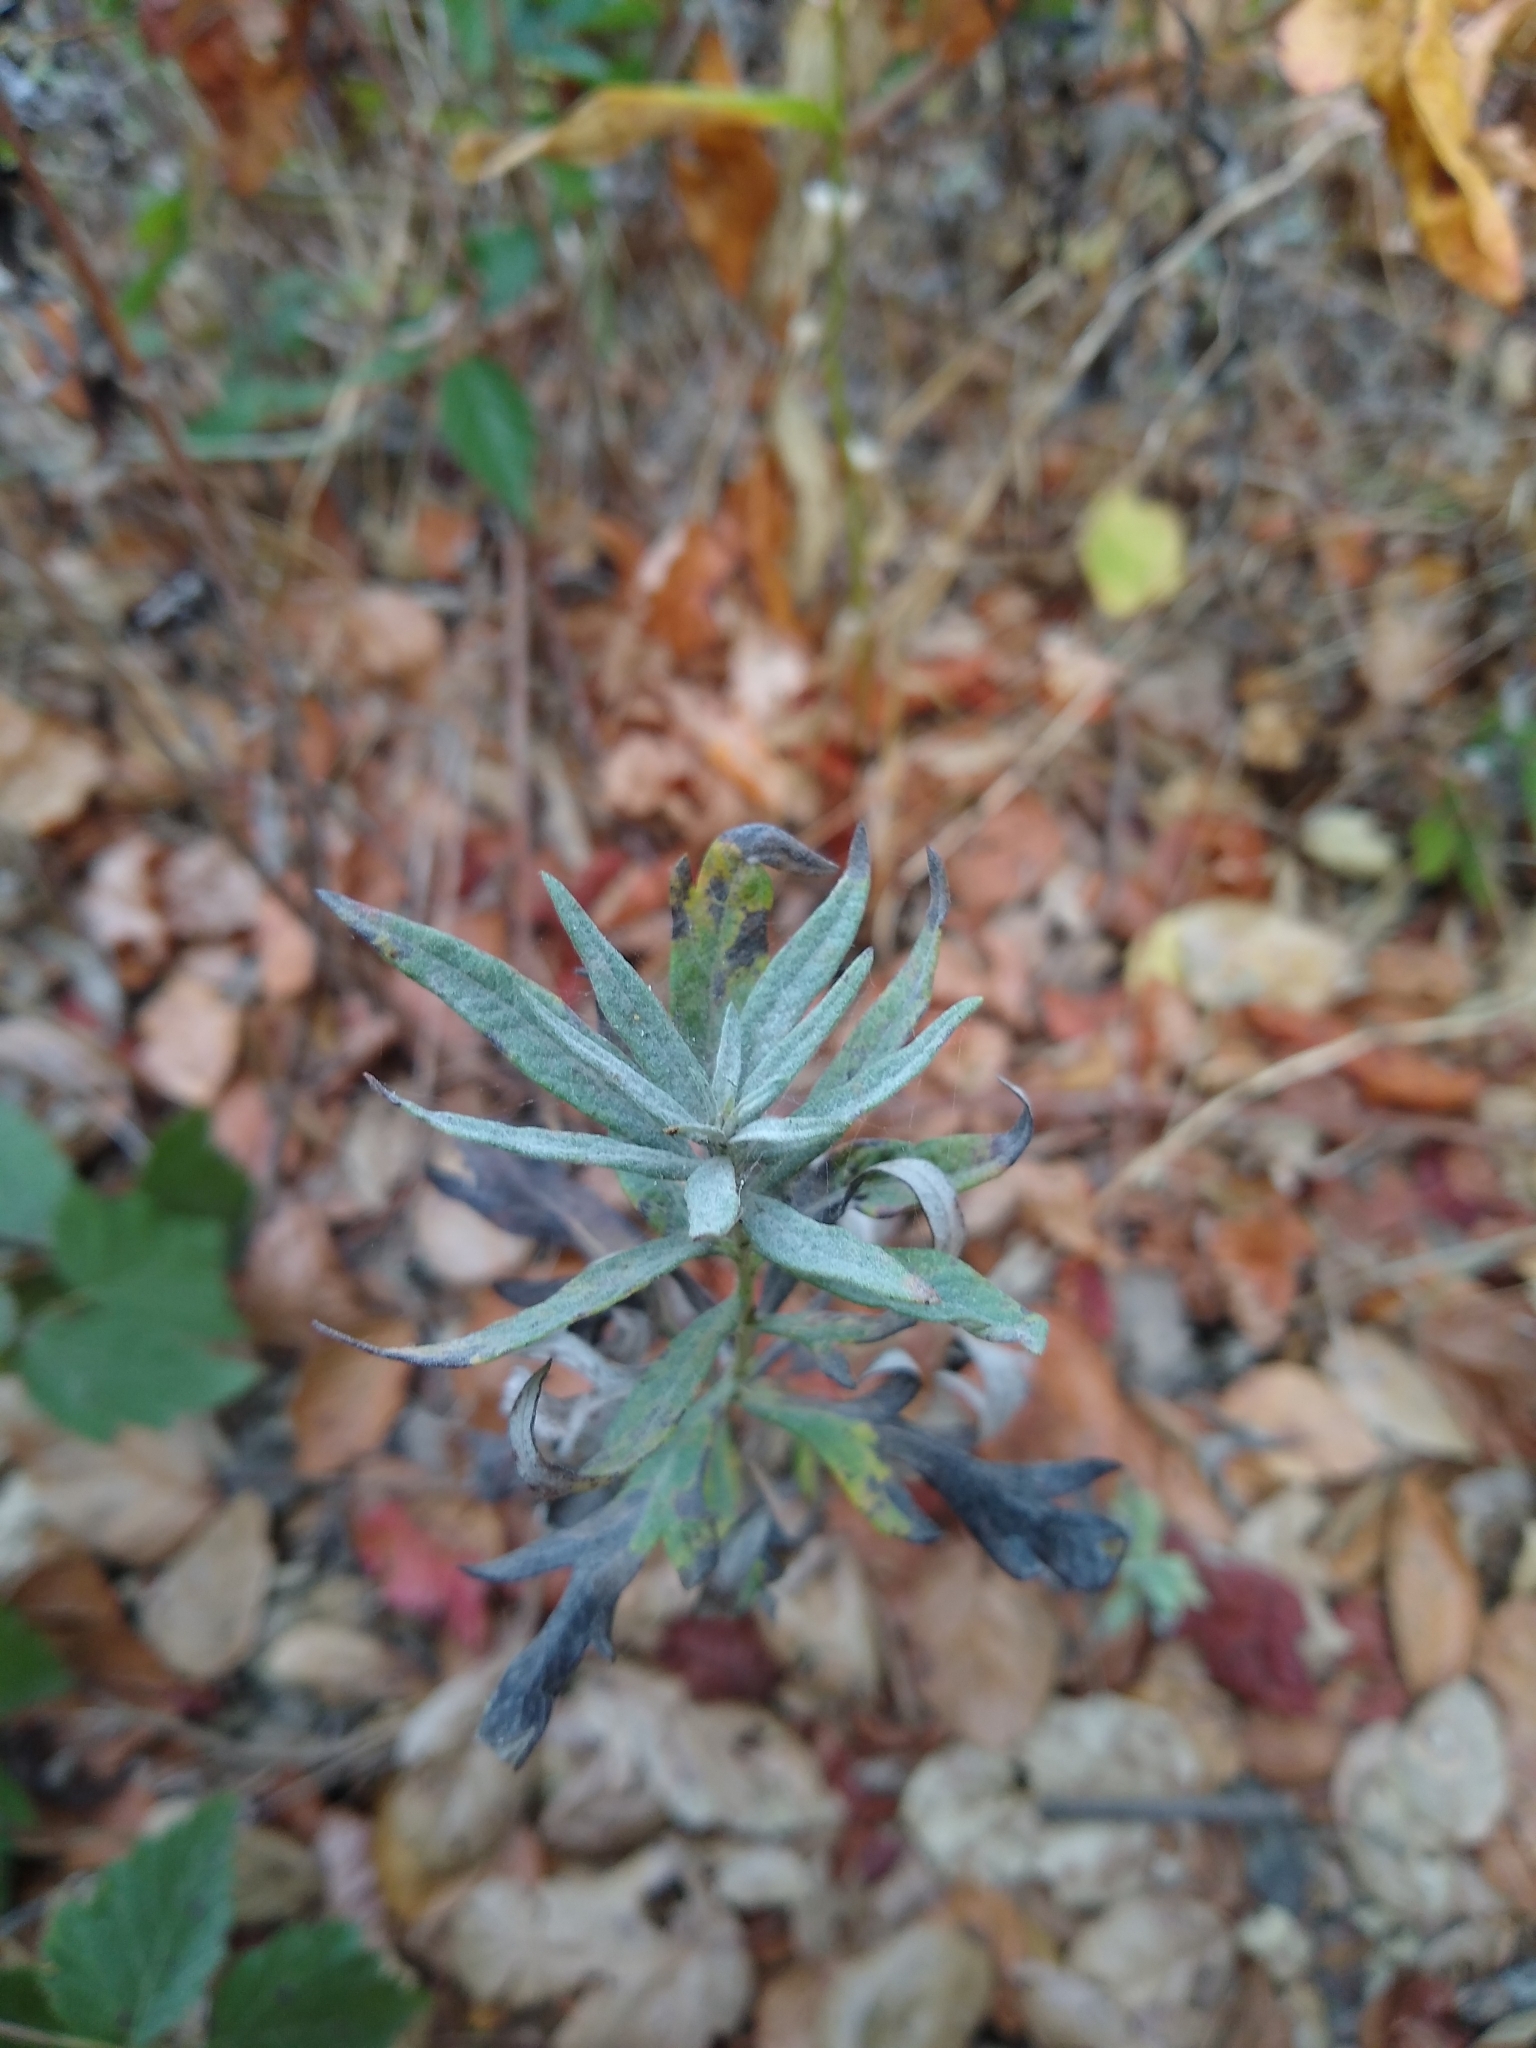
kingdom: Plantae
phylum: Tracheophyta
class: Magnoliopsida
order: Asterales
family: Asteraceae
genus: Artemisia
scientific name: Artemisia douglasiana
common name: Northwest mugwort
